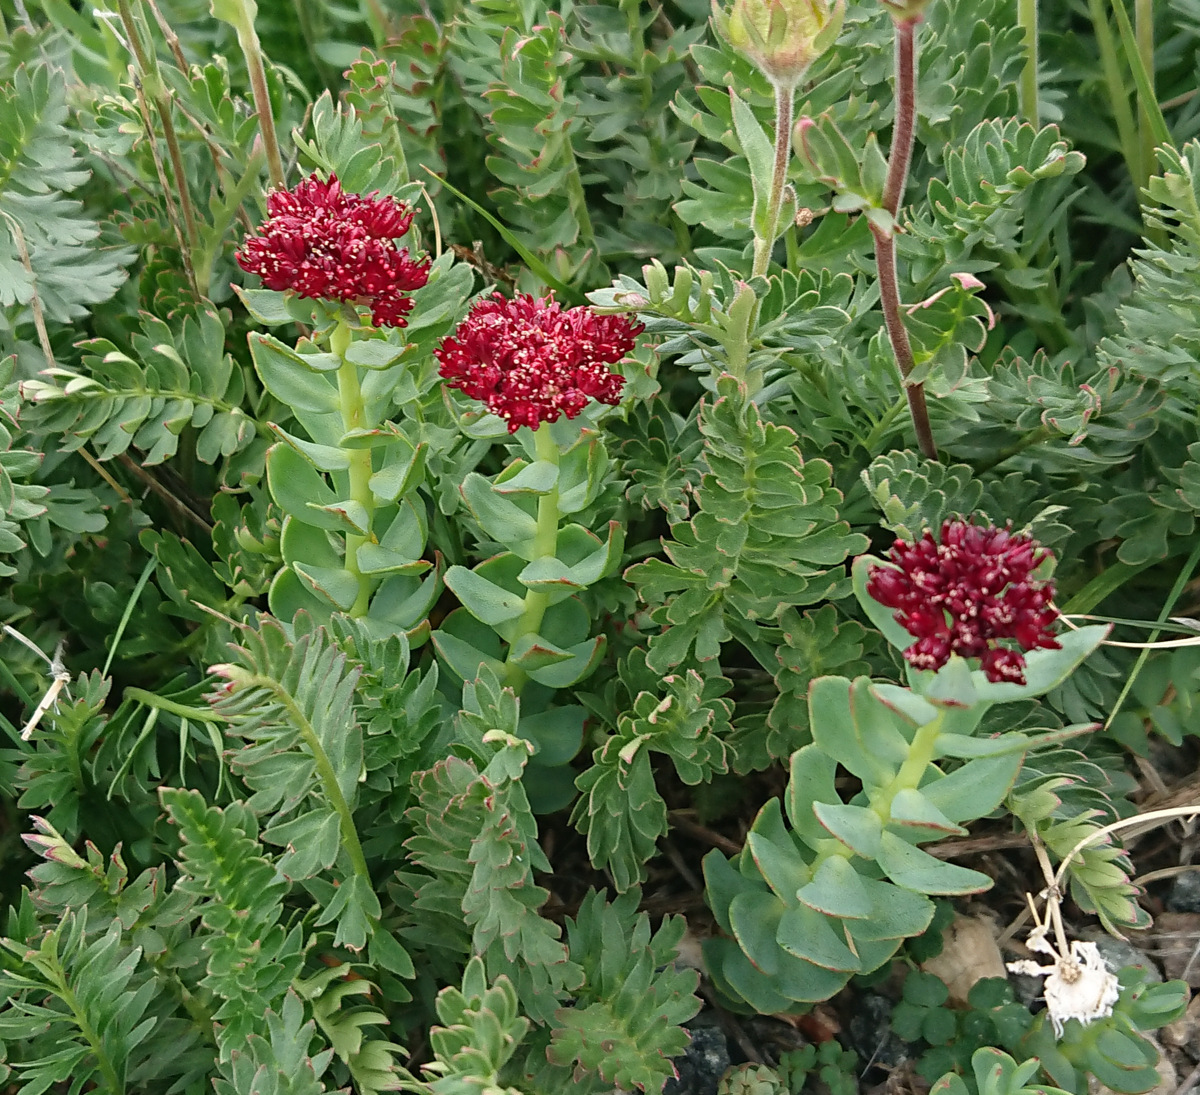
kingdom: Plantae
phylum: Tracheophyta
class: Magnoliopsida
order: Saxifragales
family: Crassulaceae
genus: Rhodiola
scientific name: Rhodiola integrifolia
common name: Western roseroot
